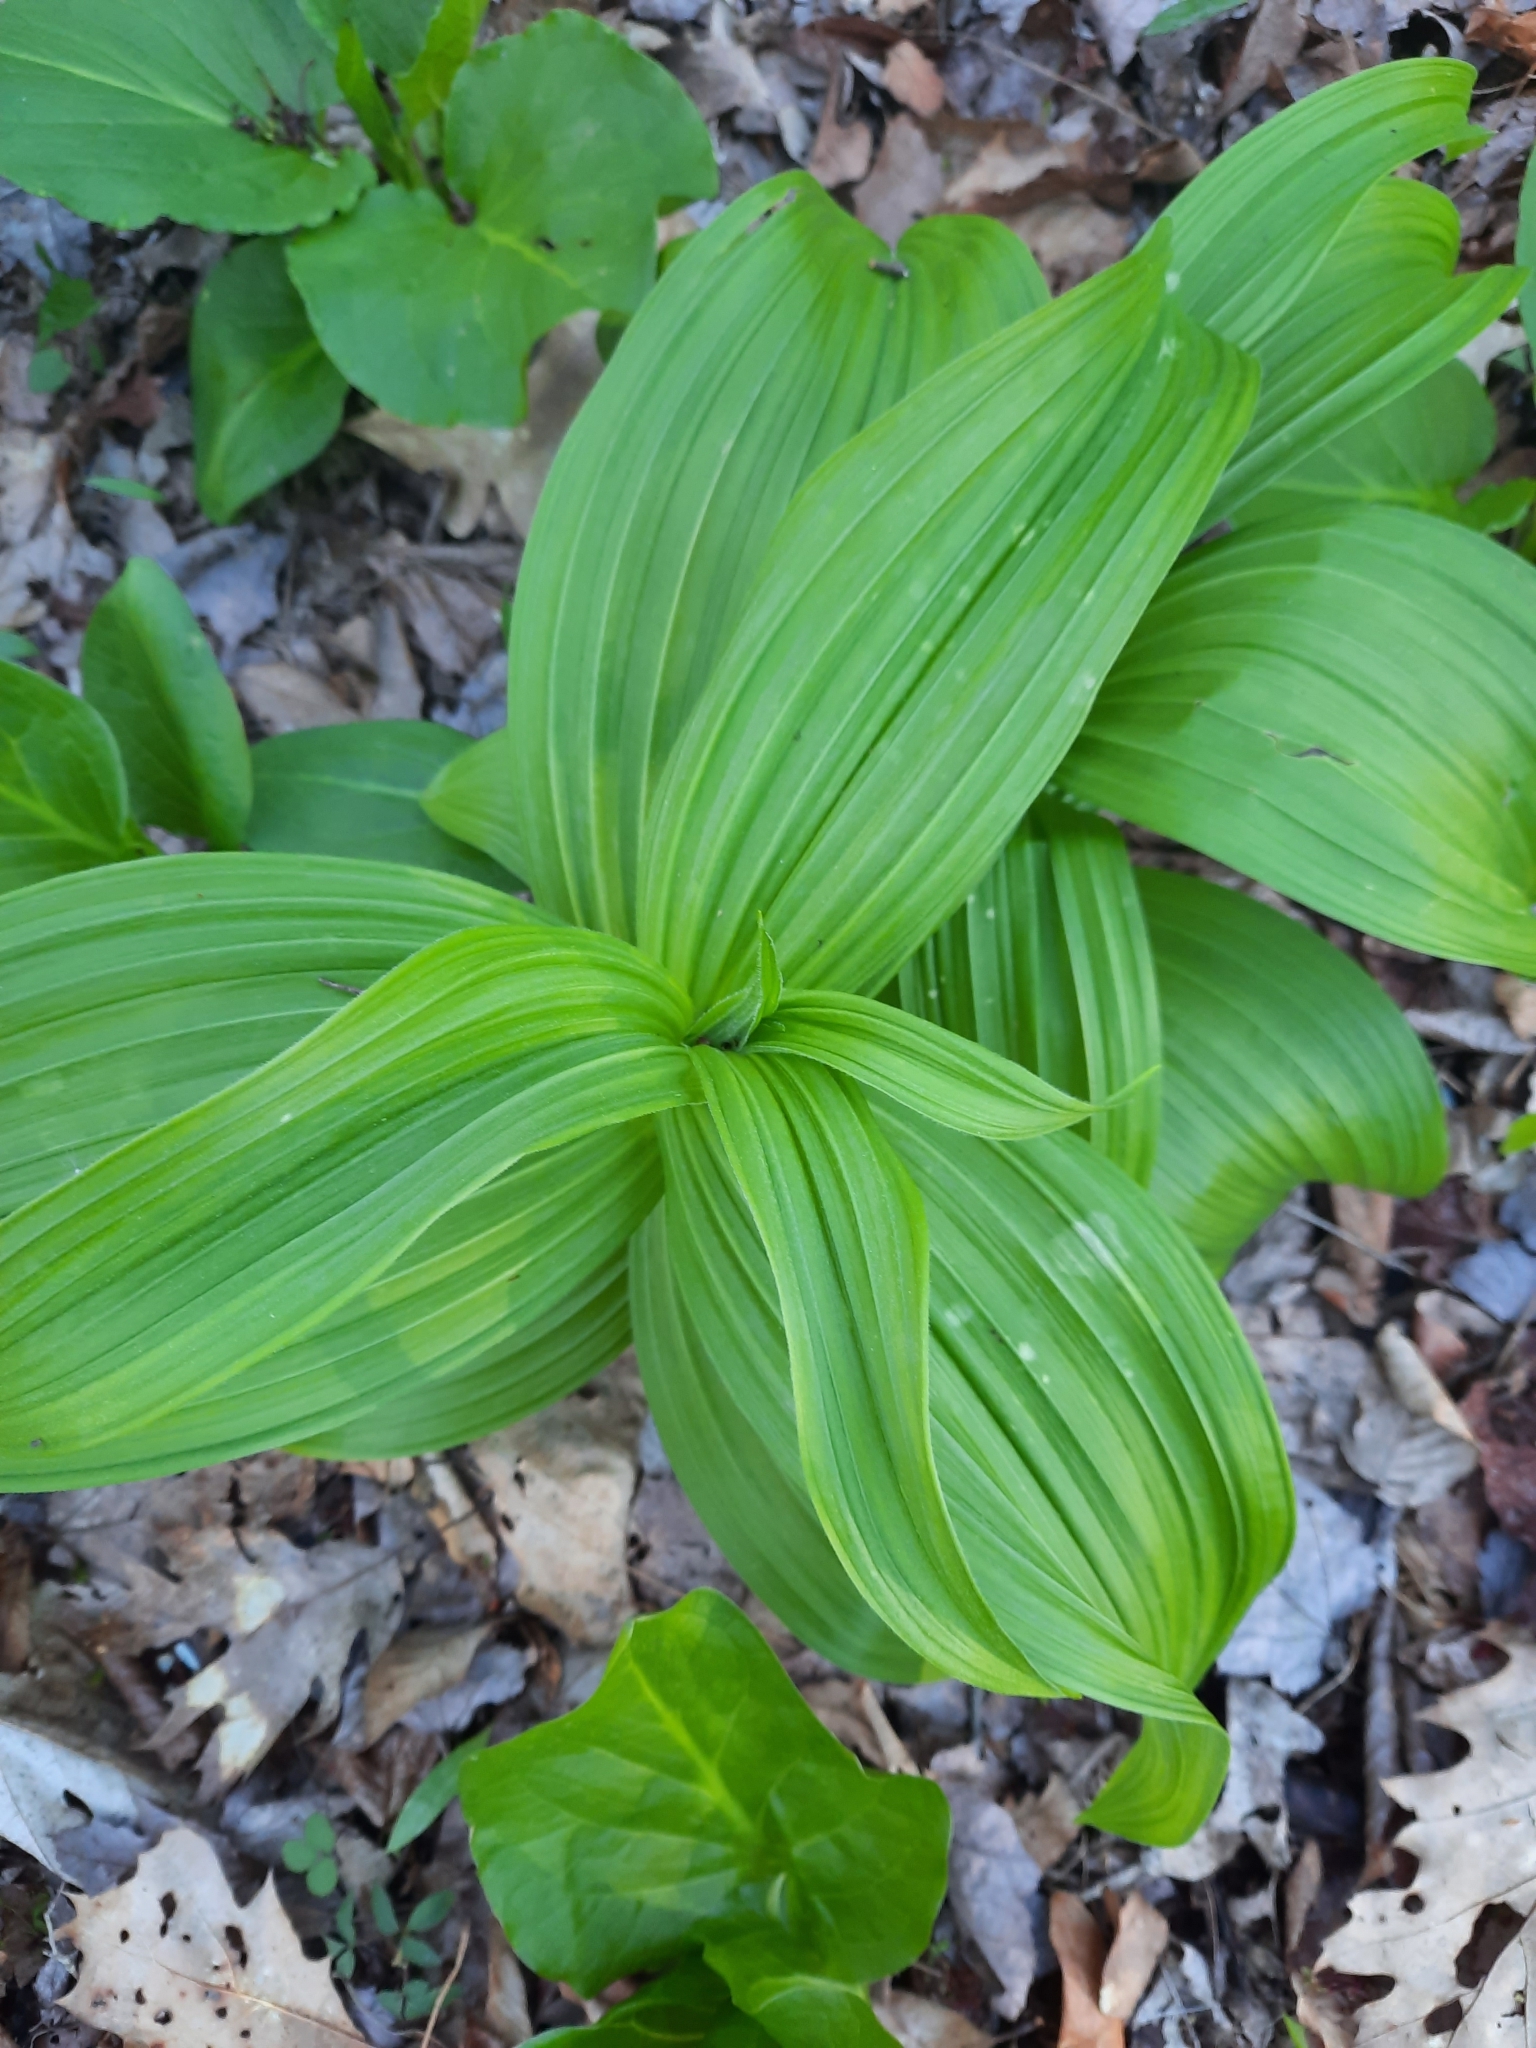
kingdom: Plantae
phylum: Tracheophyta
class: Liliopsida
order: Liliales
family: Melanthiaceae
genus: Veratrum
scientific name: Veratrum viride
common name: American false hellebore
